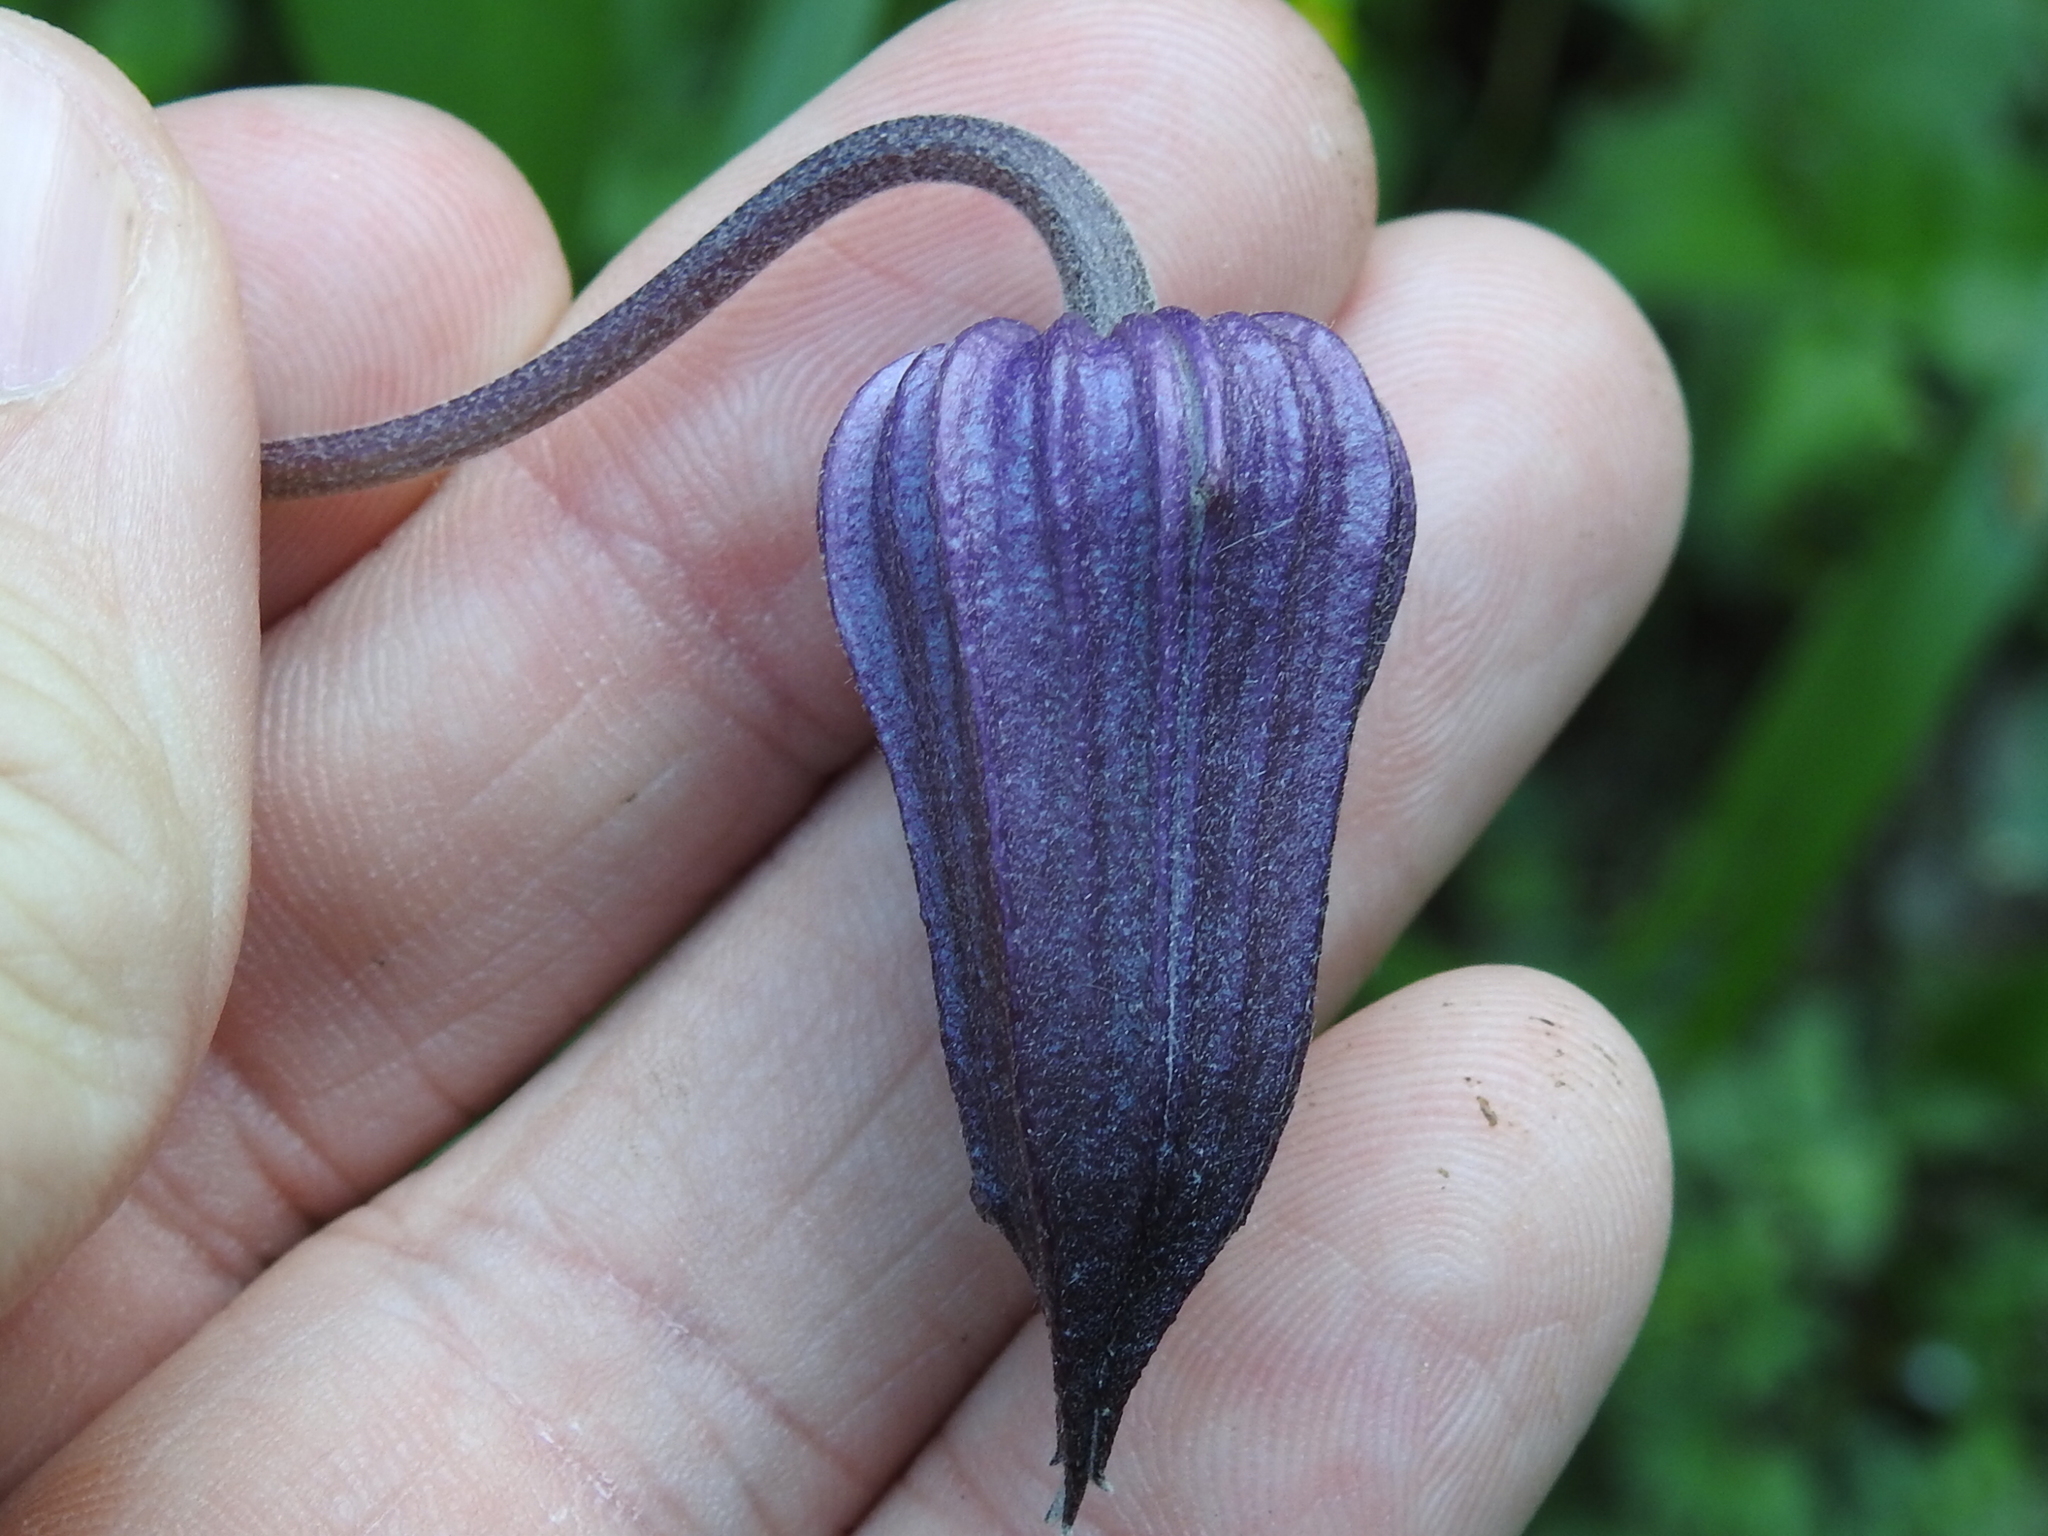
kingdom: Plantae
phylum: Tracheophyta
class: Magnoliopsida
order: Ranunculales
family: Ranunculaceae
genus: Clematis
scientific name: Clematis pitcheri
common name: Bellflower clematis
